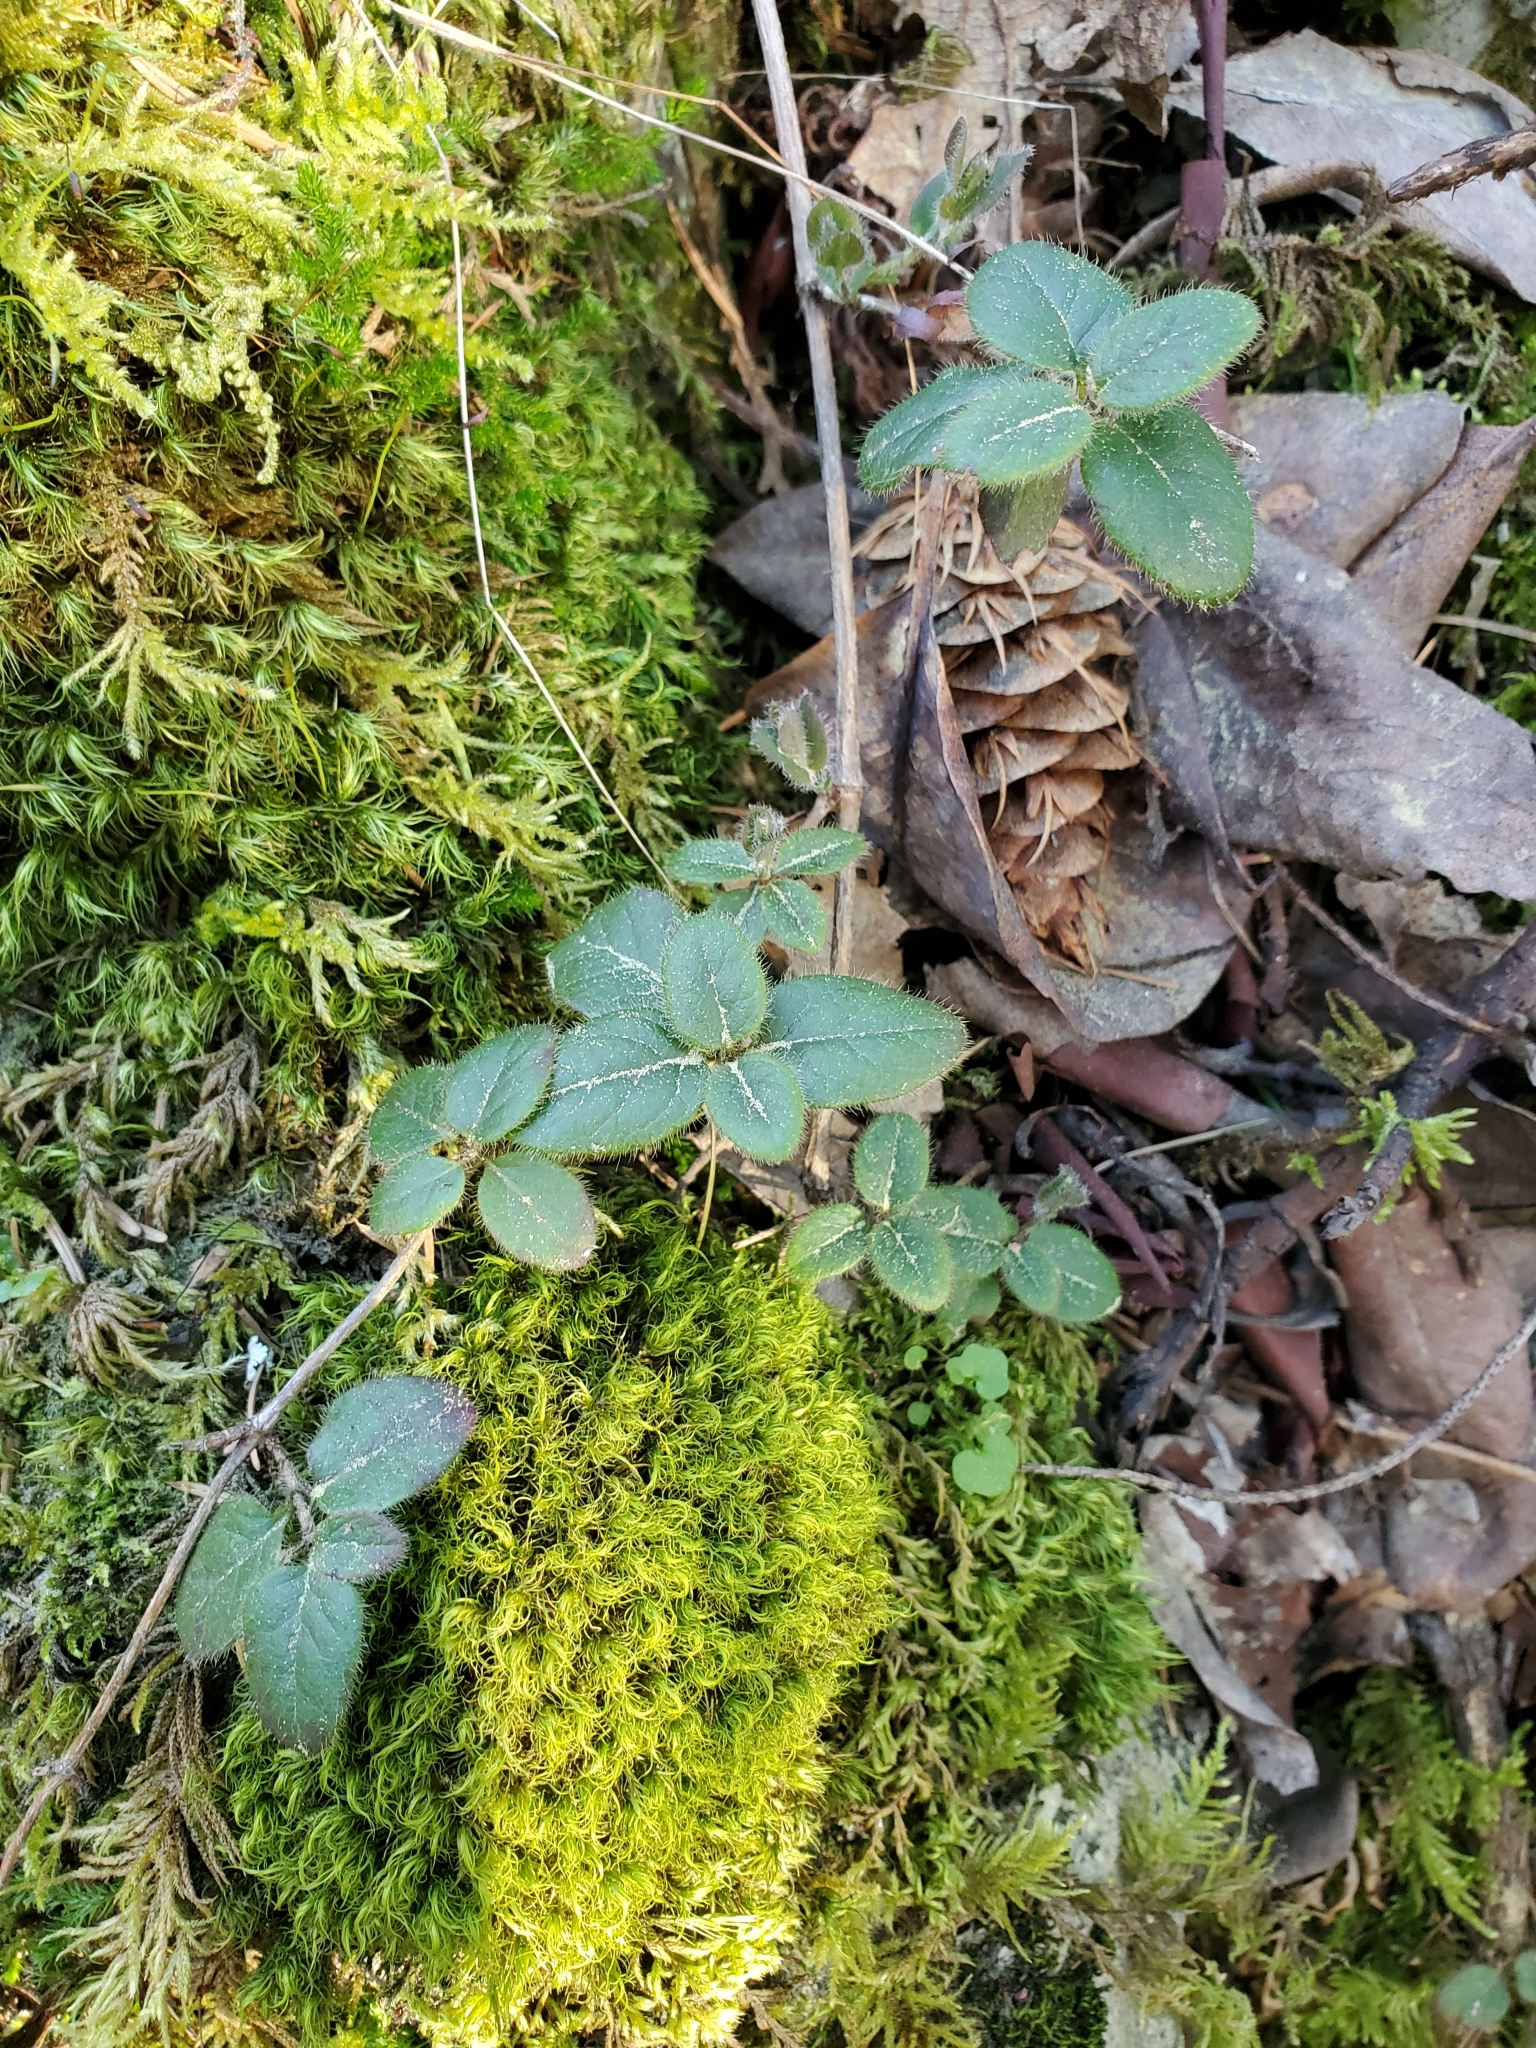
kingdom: Plantae
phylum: Tracheophyta
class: Magnoliopsida
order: Dipsacales
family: Caprifoliaceae
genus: Lonicera
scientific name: Lonicera hispidula
